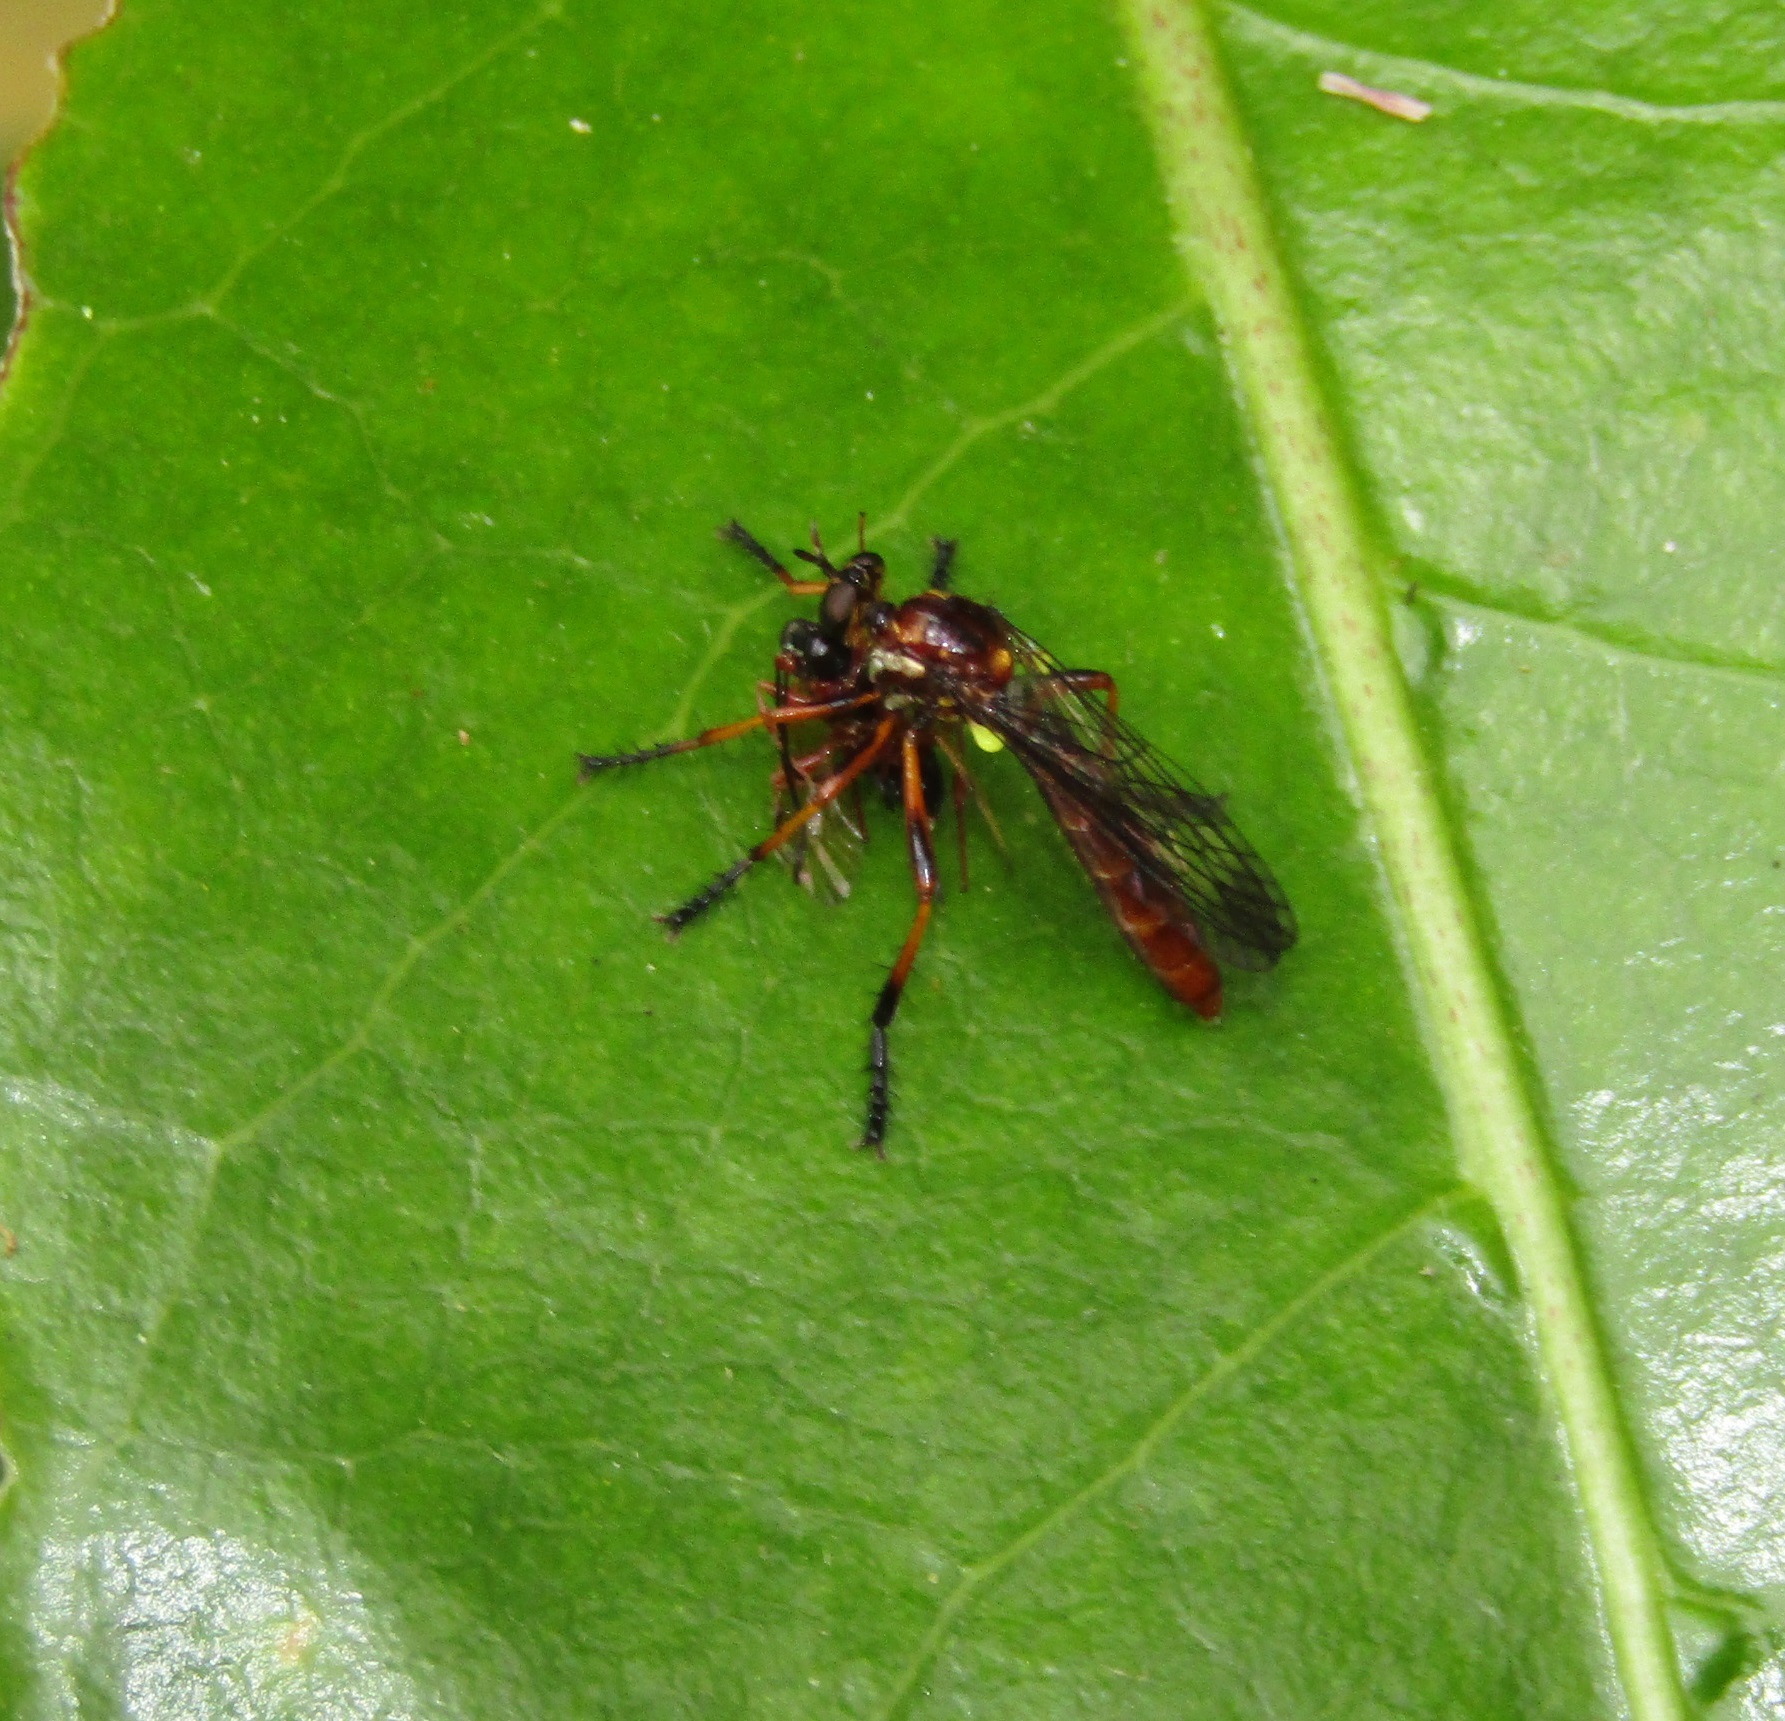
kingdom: Animalia
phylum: Arthropoda
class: Insecta
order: Diptera
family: Asilidae
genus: Saropogon
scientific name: Saropogon antipodus
